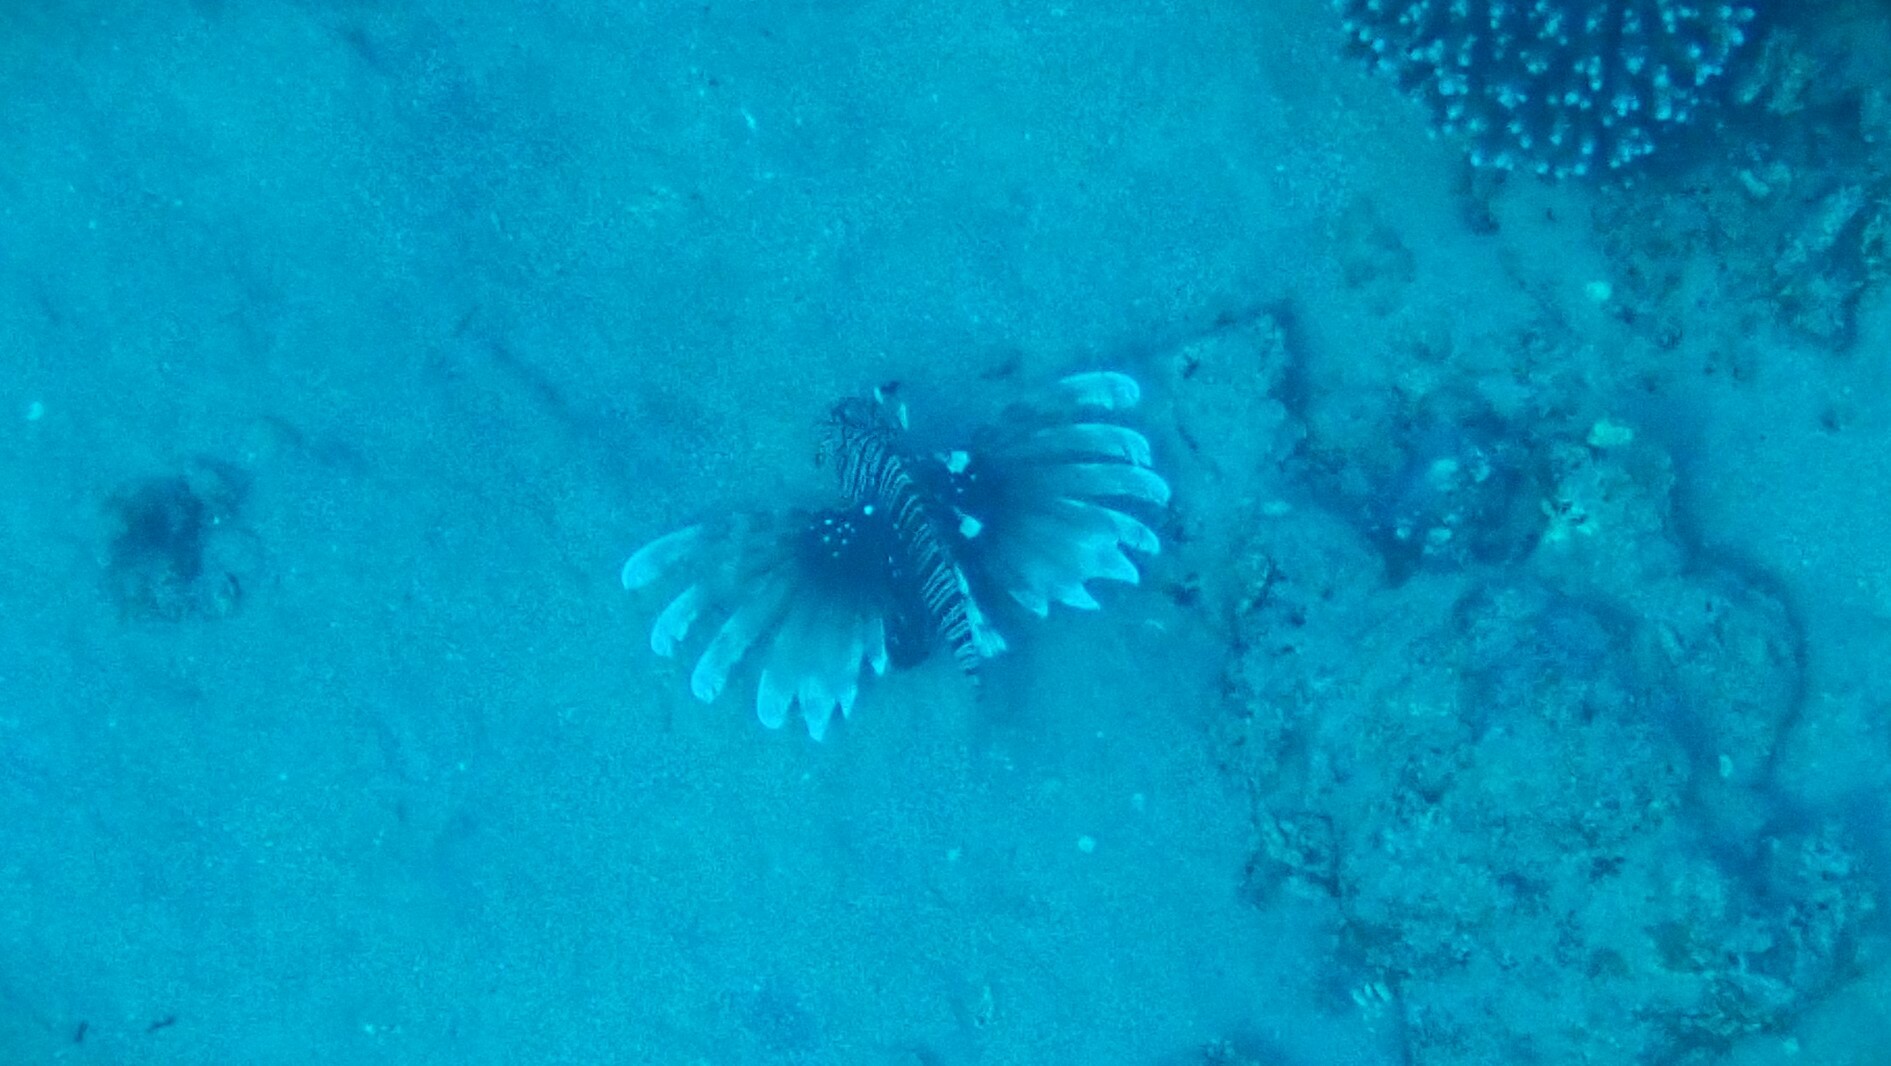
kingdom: Animalia
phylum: Chordata
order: Scorpaeniformes
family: Scorpaenidae
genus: Pterois
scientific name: Pterois miles
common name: Devil firefish
